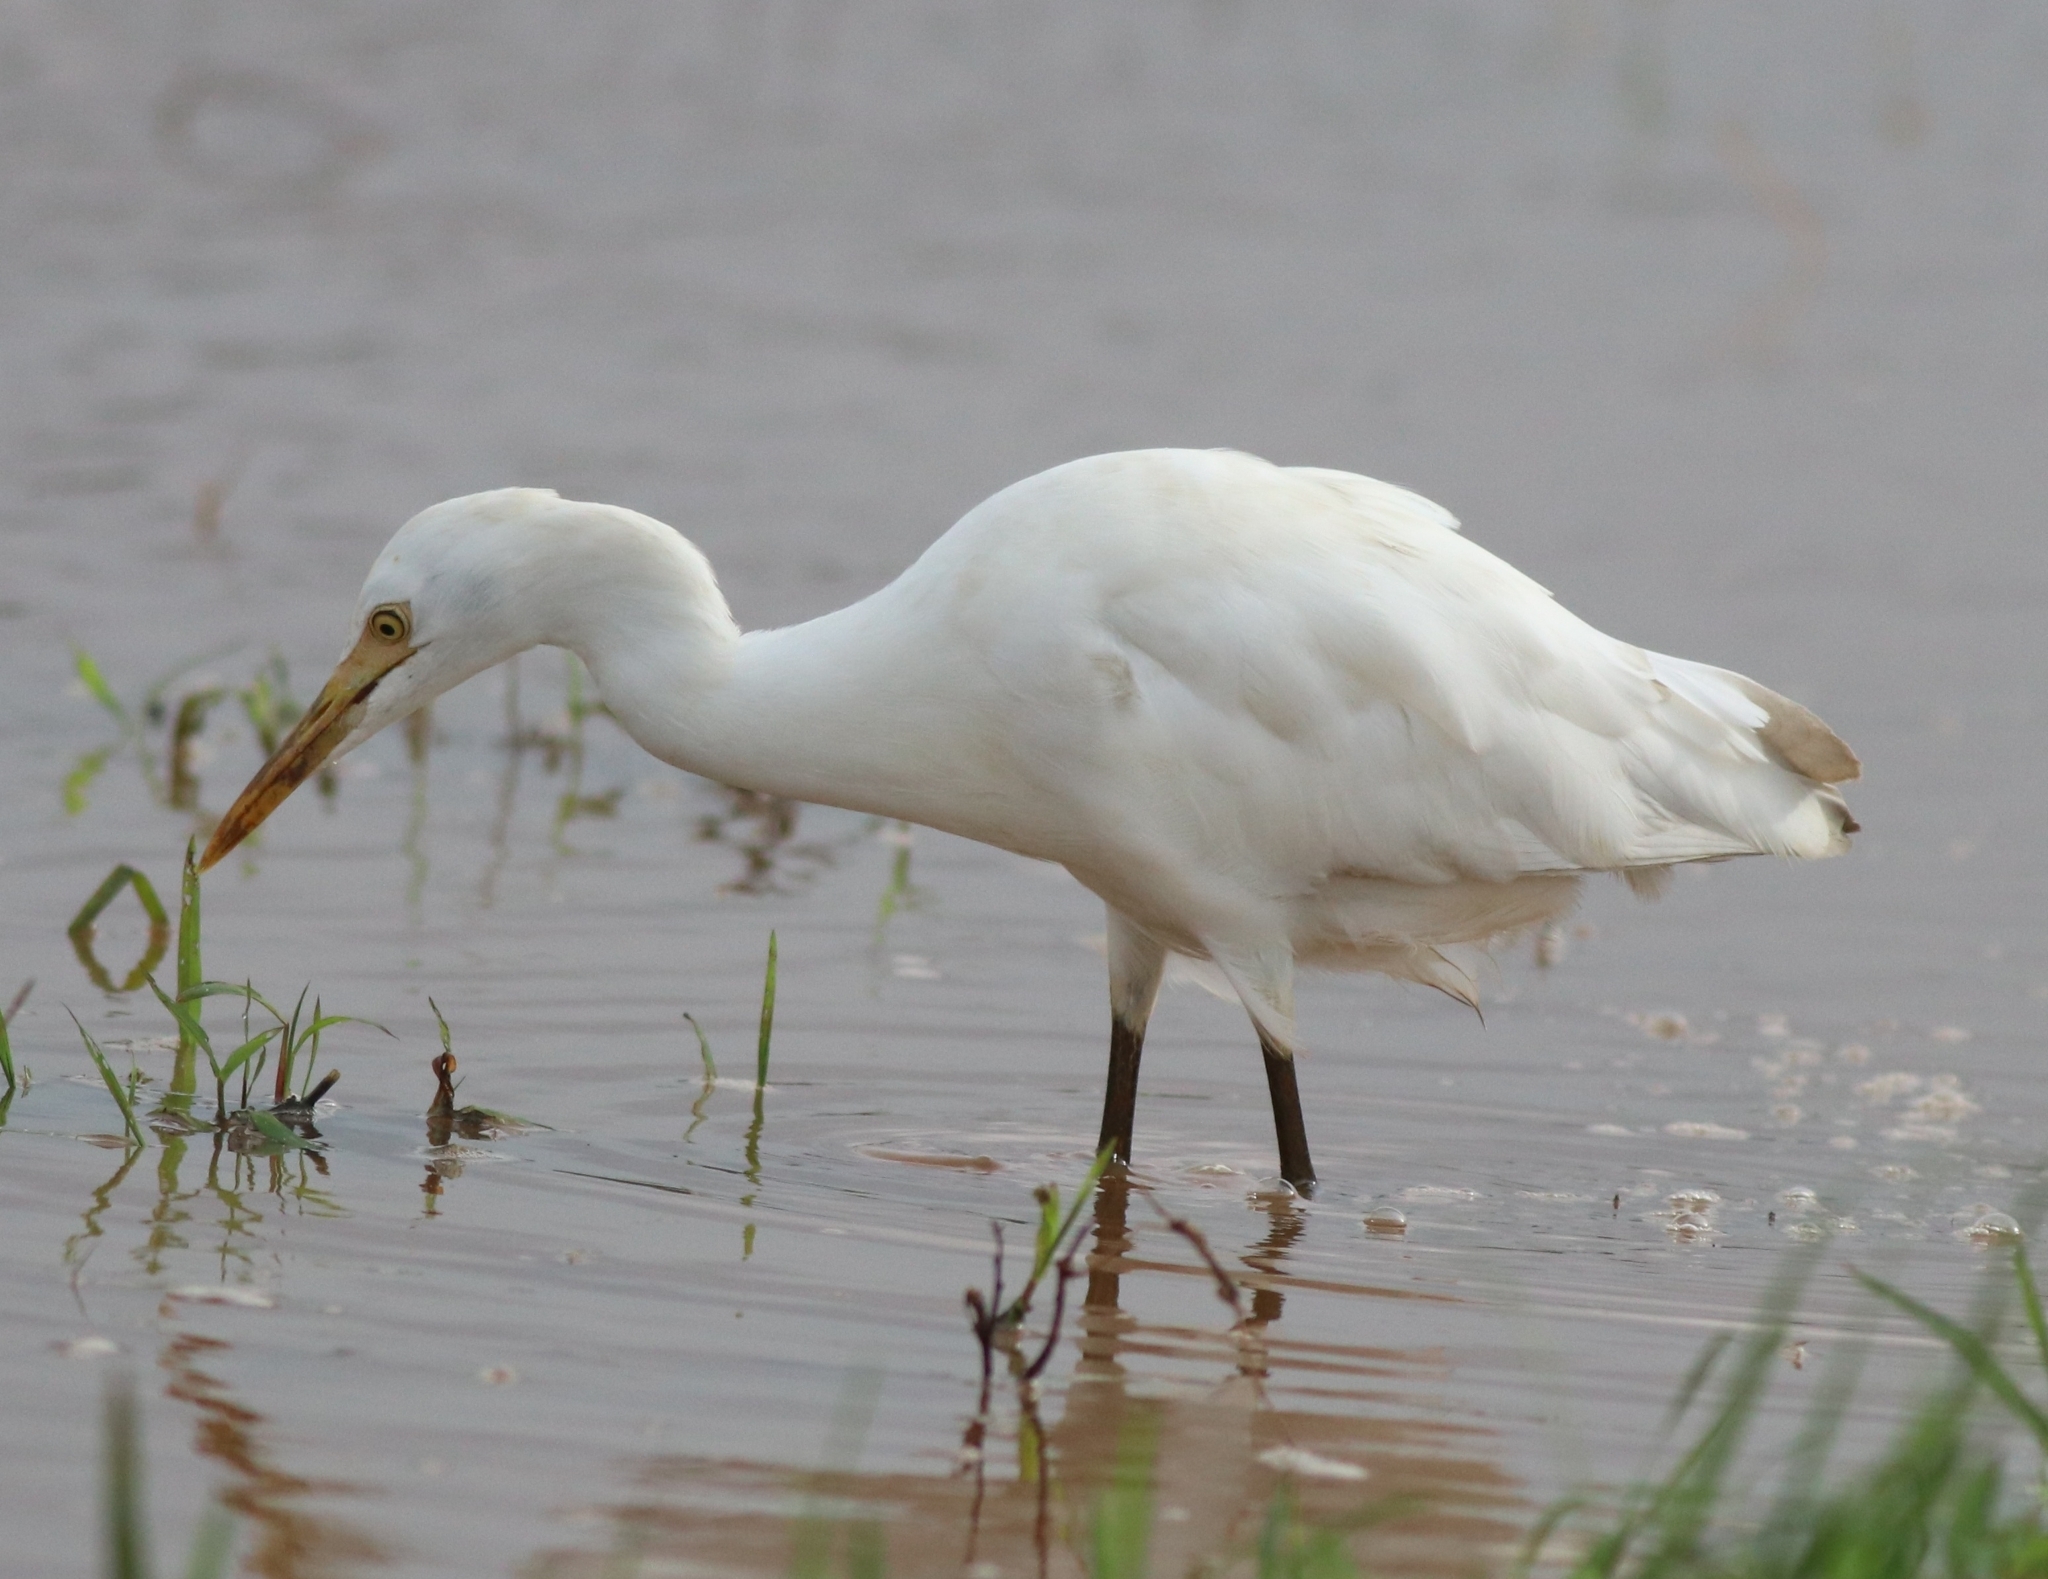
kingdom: Animalia
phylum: Chordata
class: Aves
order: Pelecaniformes
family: Ardeidae
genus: Egretta
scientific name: Egretta intermedia
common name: Intermediate egret
